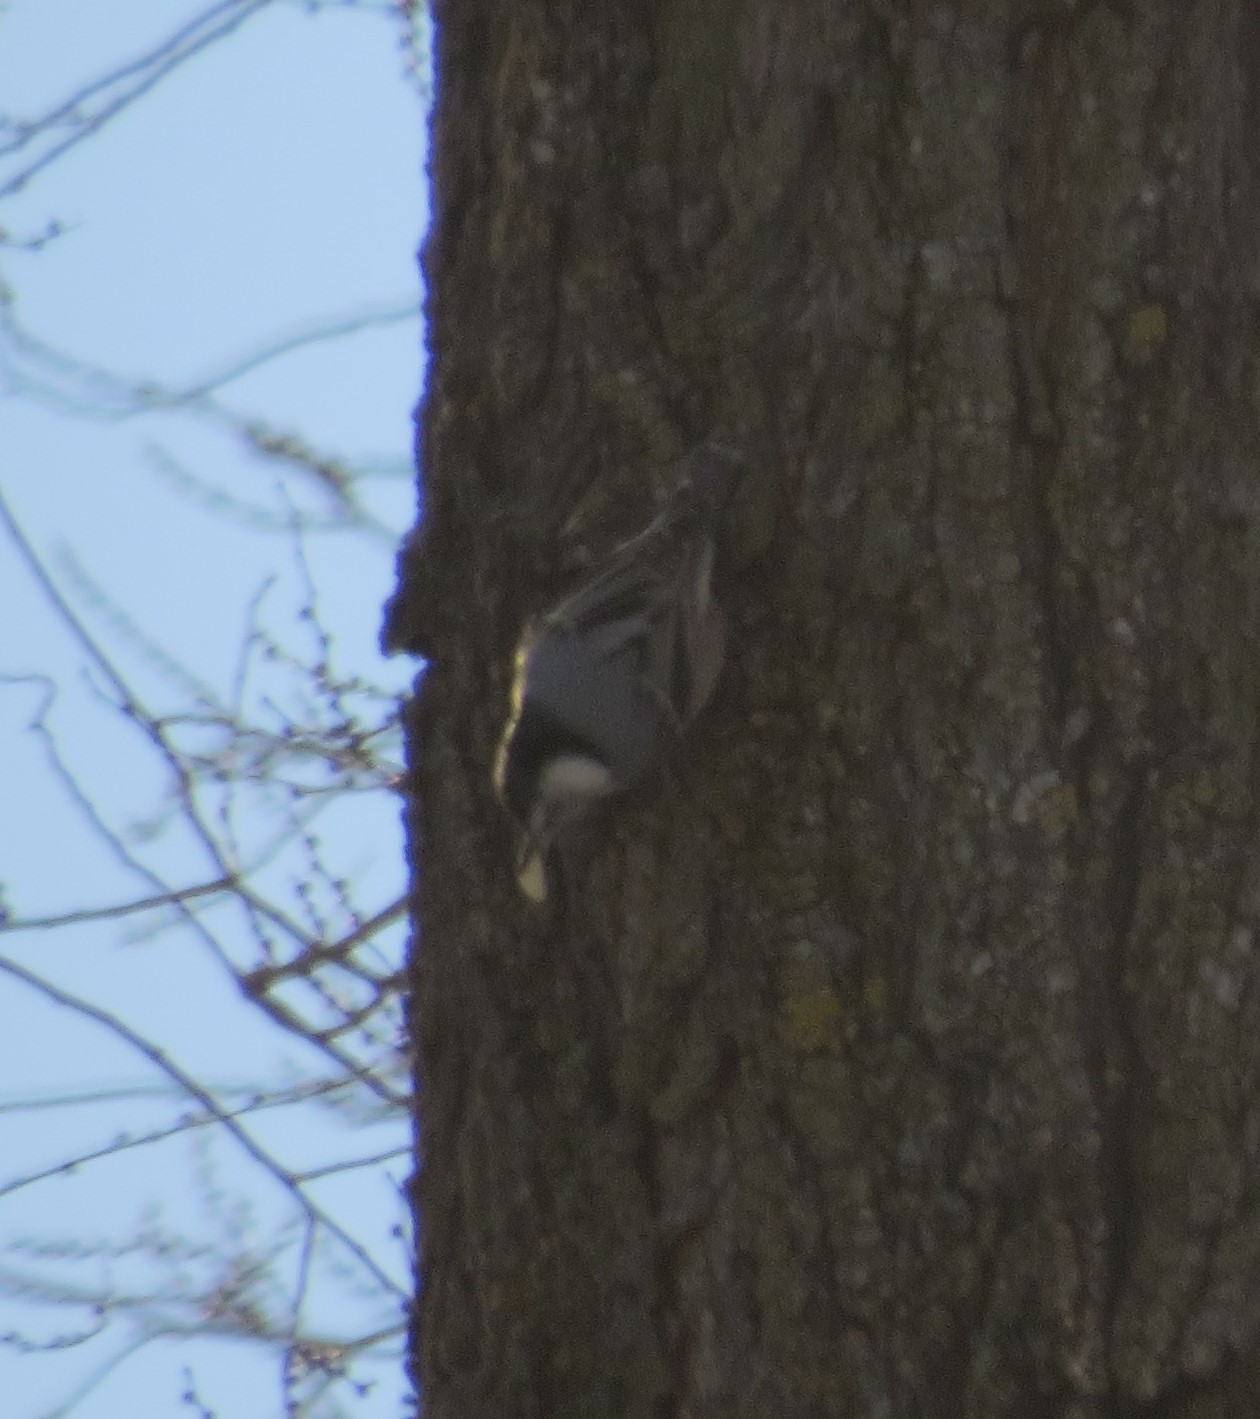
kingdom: Animalia
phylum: Chordata
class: Aves
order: Passeriformes
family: Sittidae
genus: Sitta
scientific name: Sitta carolinensis
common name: White-breasted nuthatch
